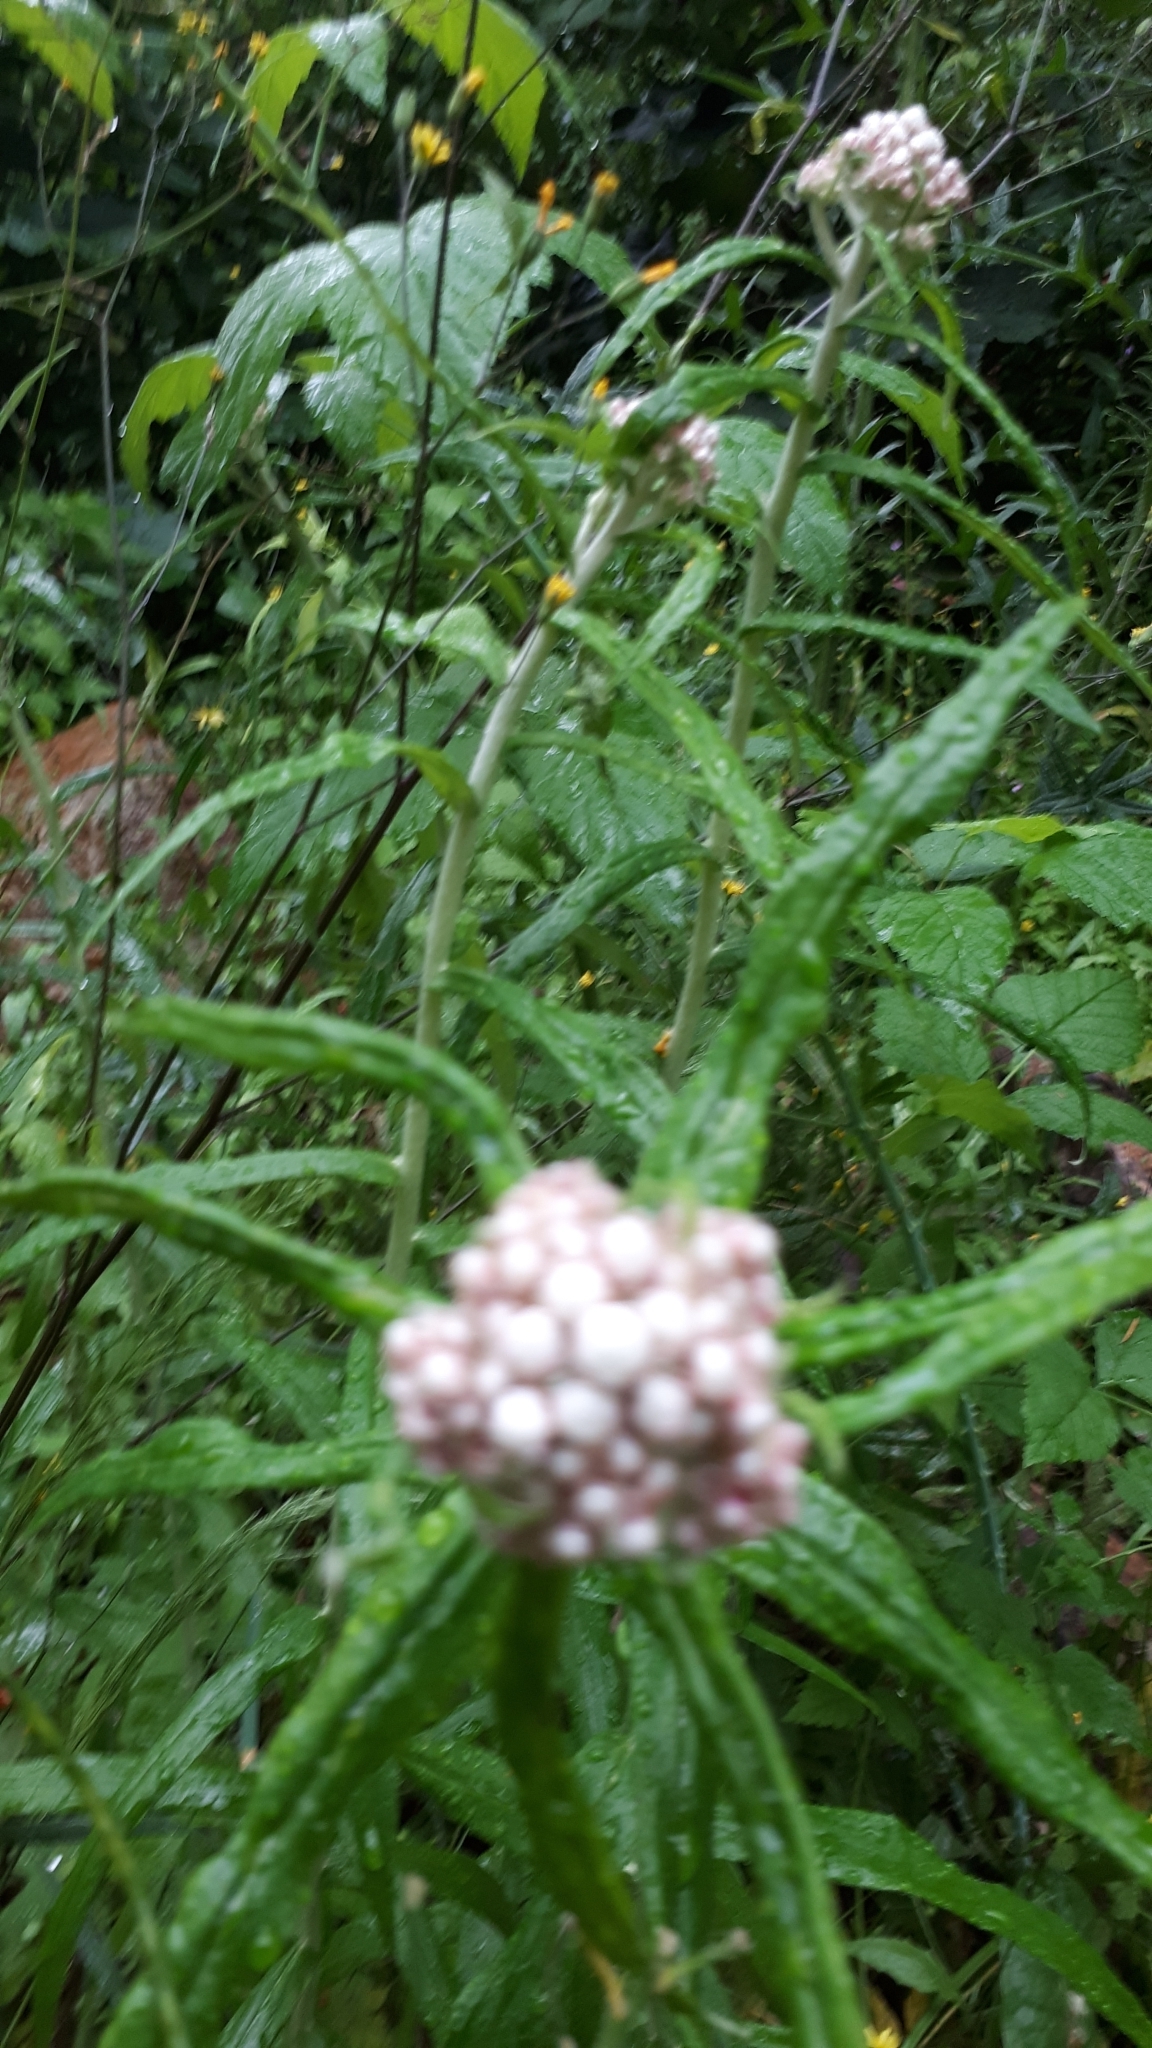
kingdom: Plantae
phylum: Tracheophyta
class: Magnoliopsida
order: Asterales
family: Asteraceae
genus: Anaphalis
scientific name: Anaphalis margaritacea
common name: Pearly everlasting
